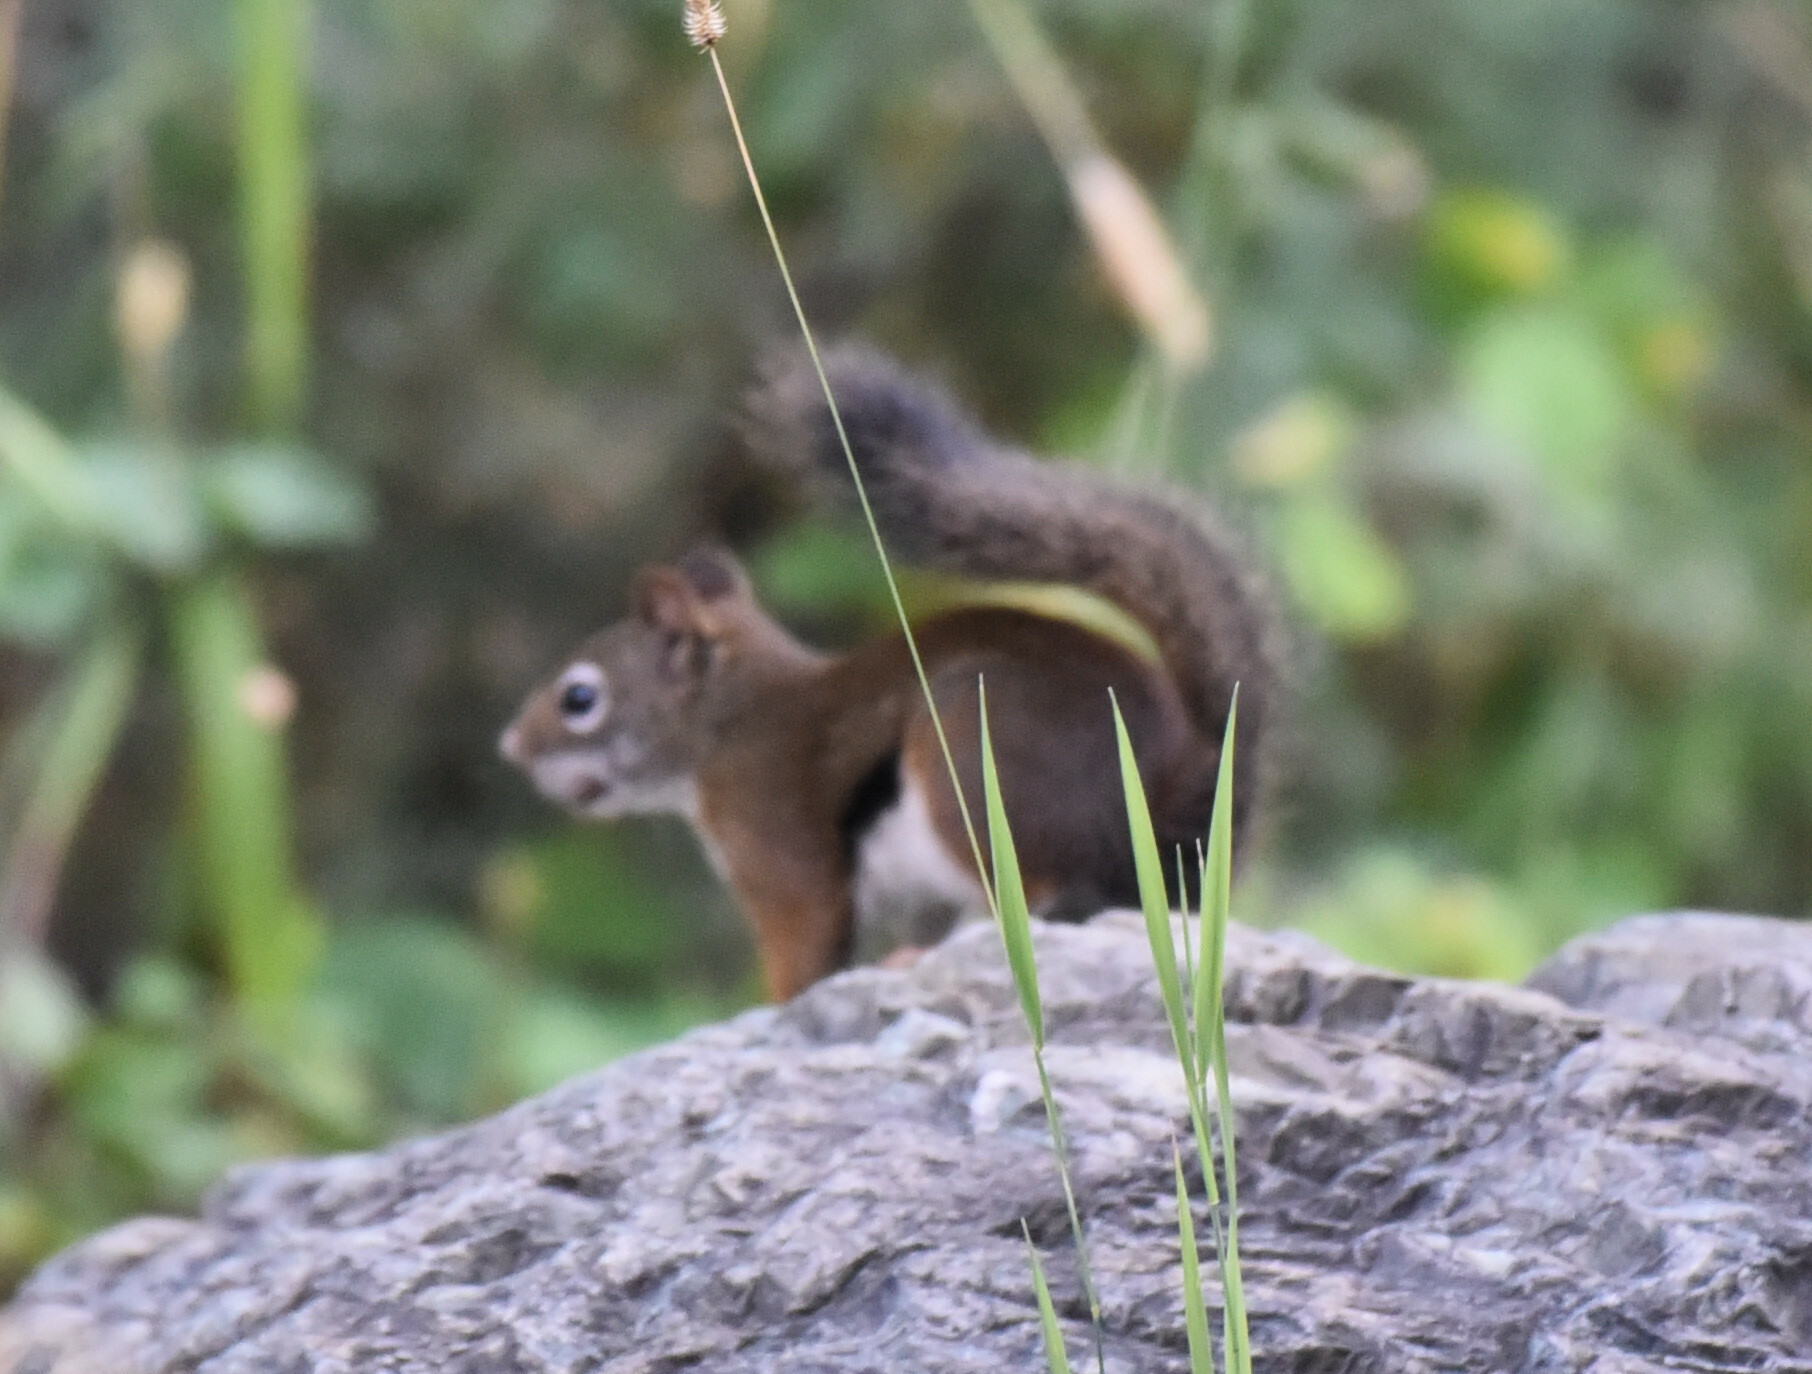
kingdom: Animalia
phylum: Chordata
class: Mammalia
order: Rodentia
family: Sciuridae
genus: Tamiasciurus
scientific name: Tamiasciurus hudsonicus
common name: Red squirrel
